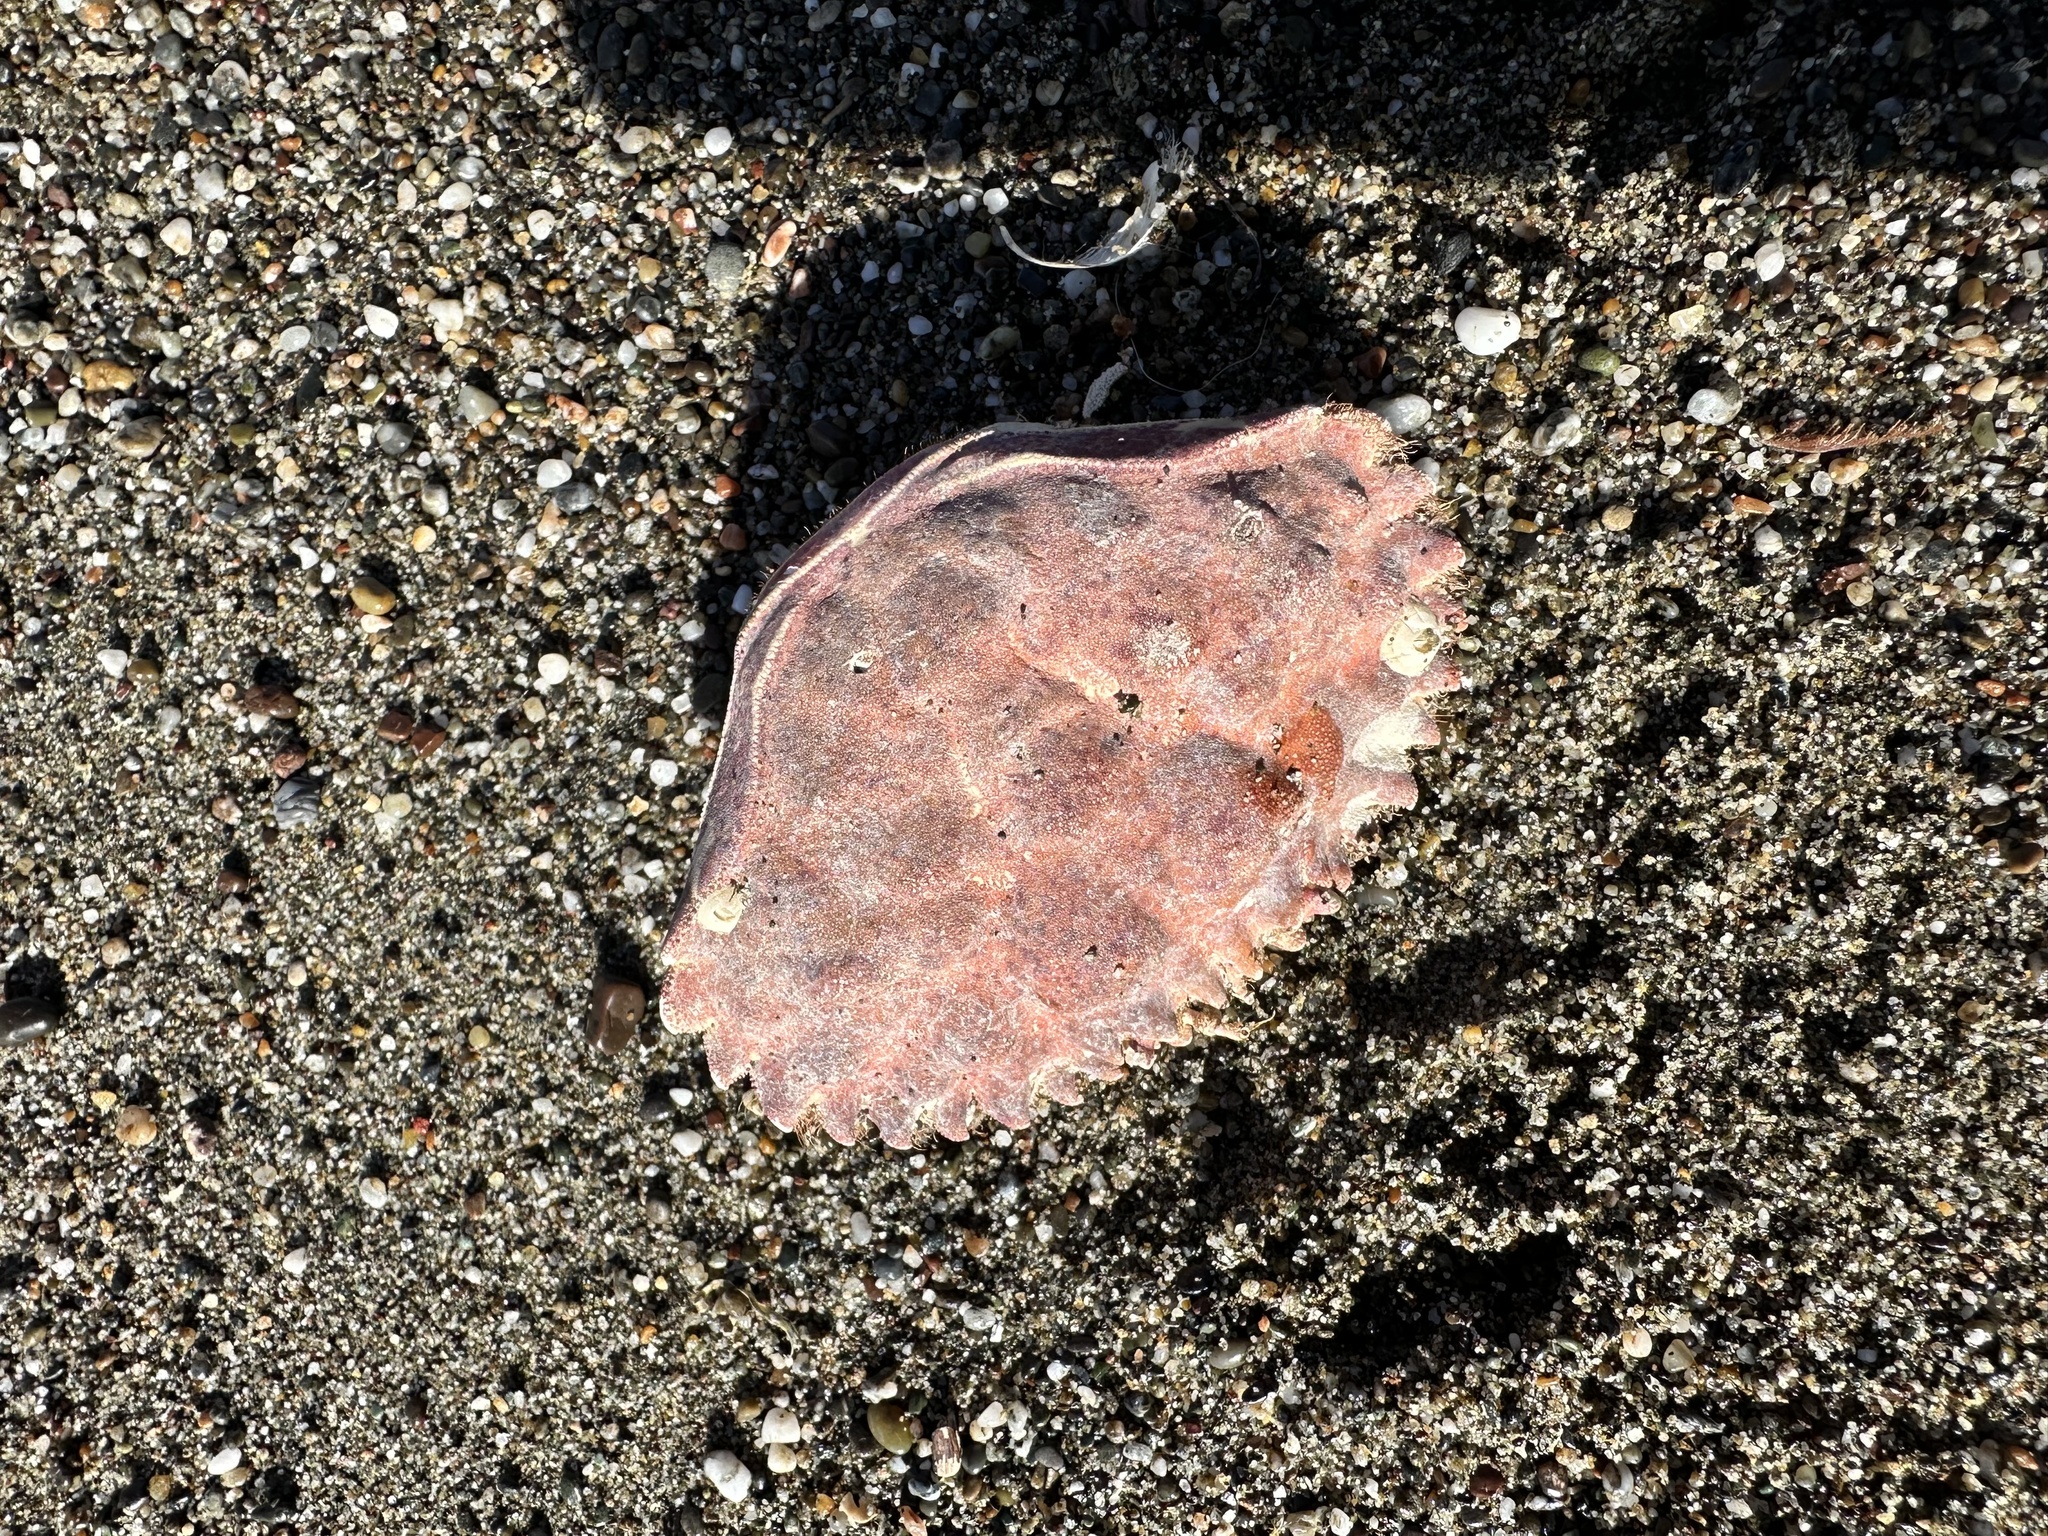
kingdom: Animalia
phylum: Arthropoda
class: Malacostraca
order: Decapoda
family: Cancridae
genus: Romaleon
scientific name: Romaleon antennarium
